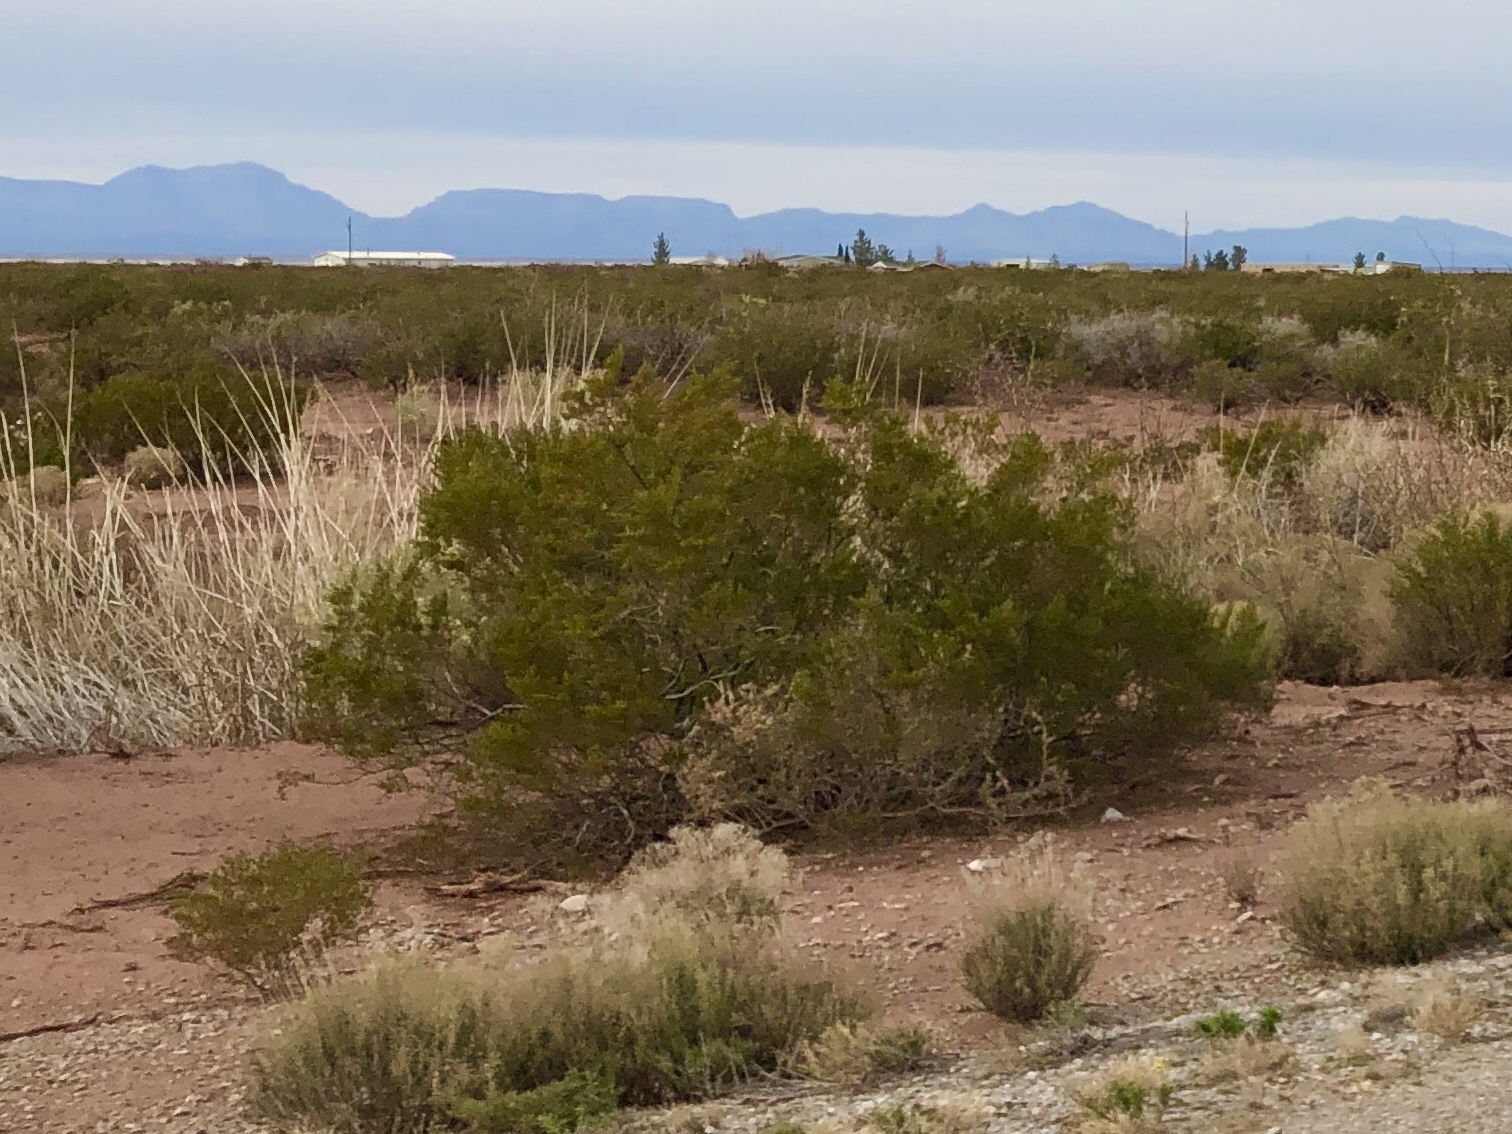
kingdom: Plantae
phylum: Tracheophyta
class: Magnoliopsida
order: Zygophyllales
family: Zygophyllaceae
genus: Larrea
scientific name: Larrea tridentata
